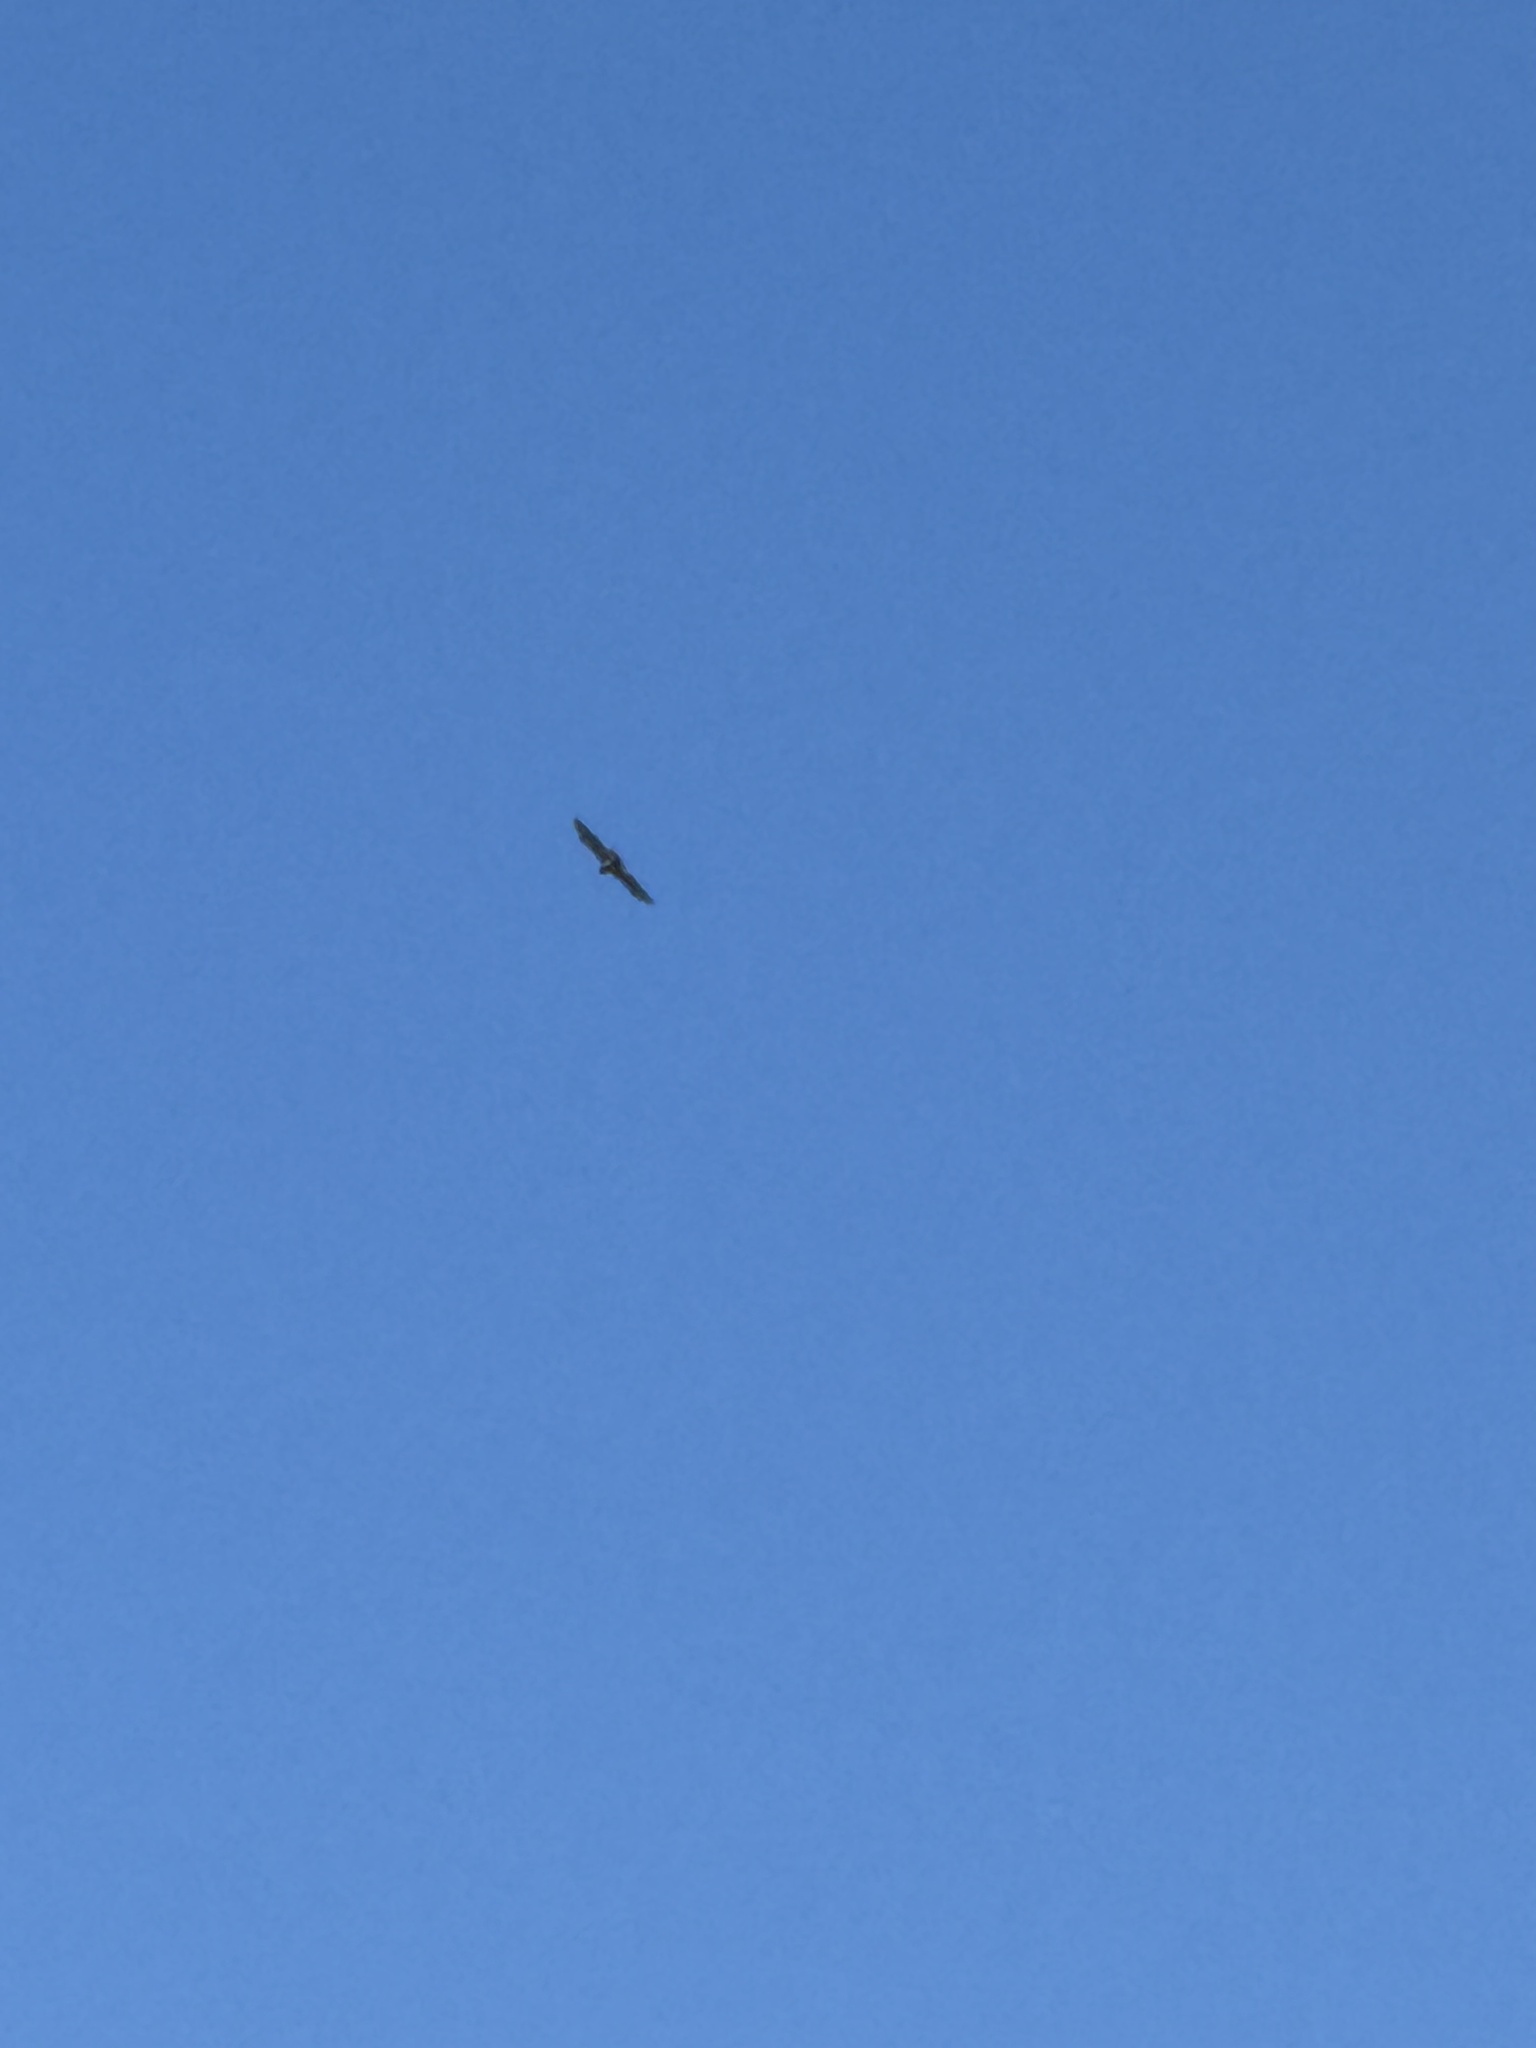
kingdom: Animalia
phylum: Chordata
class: Aves
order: Accipitriformes
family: Accipitridae
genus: Buteo
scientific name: Buteo jamaicensis
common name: Red-tailed hawk
